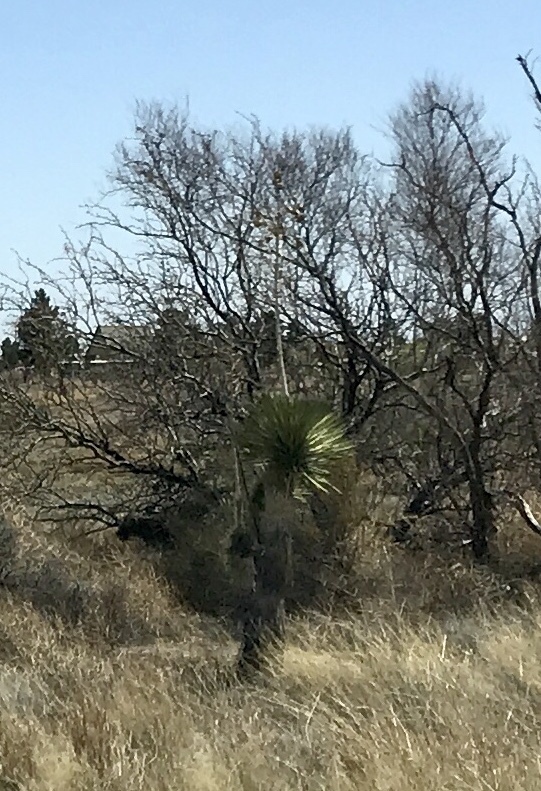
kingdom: Plantae
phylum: Tracheophyta
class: Liliopsida
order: Asparagales
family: Asparagaceae
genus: Yucca
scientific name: Yucca elata
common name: Palmella
